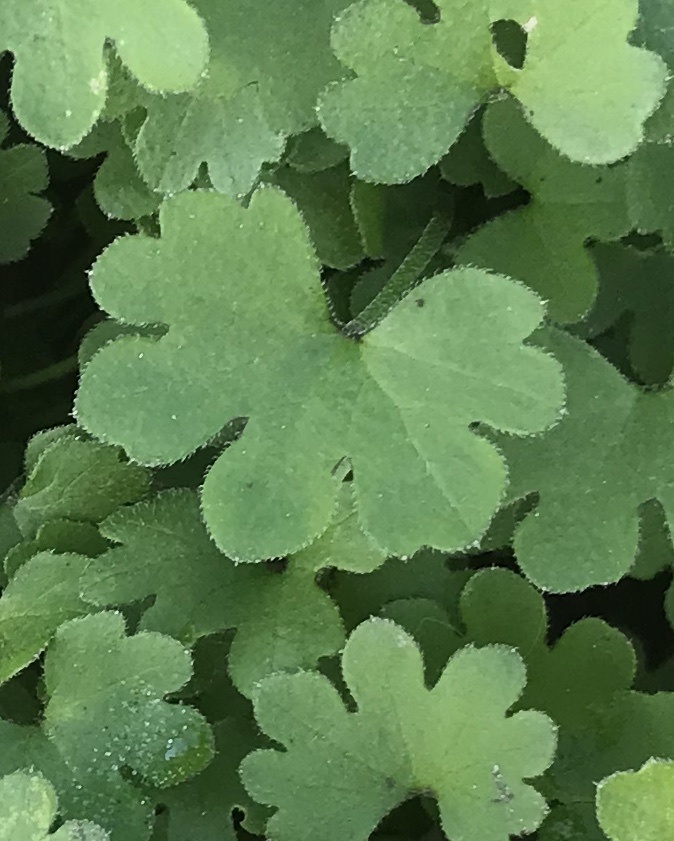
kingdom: Plantae
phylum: Tracheophyta
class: Magnoliopsida
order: Apiales
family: Apiaceae
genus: Bowlesia
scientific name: Bowlesia incana
